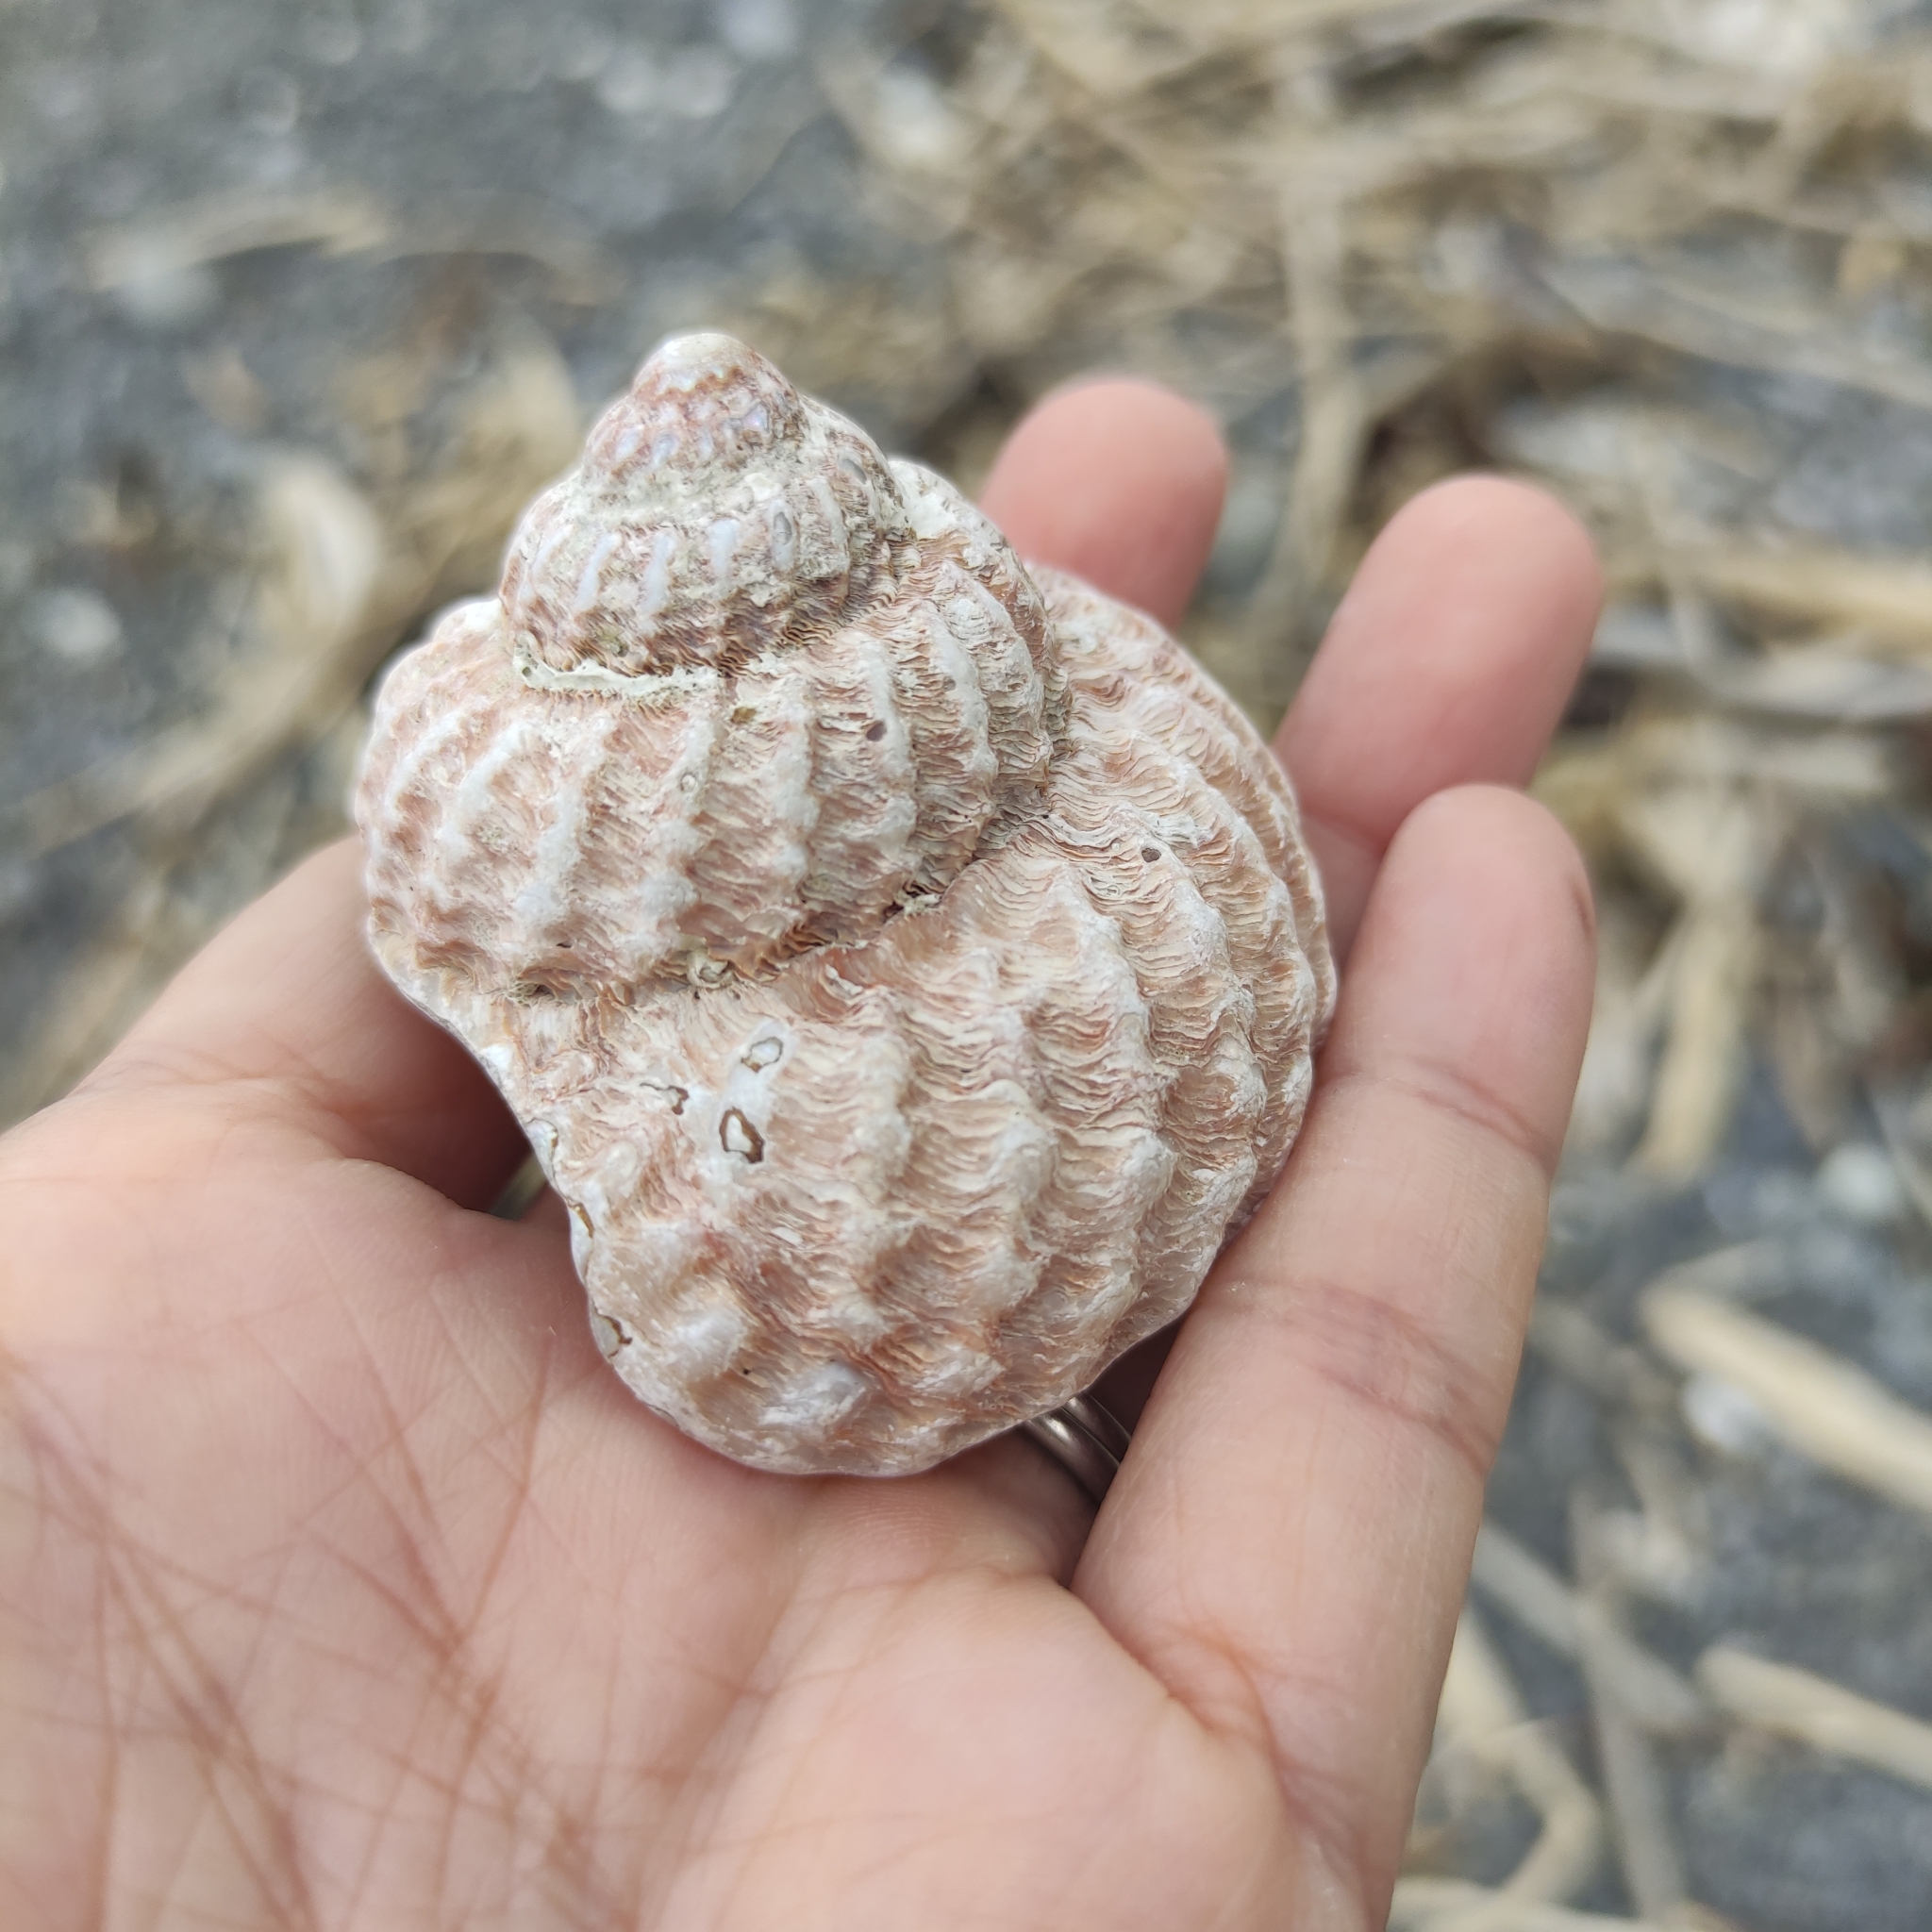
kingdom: Animalia
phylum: Mollusca
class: Gastropoda
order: Trochida
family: Turbinidae
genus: Cookia
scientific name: Cookia sulcata
